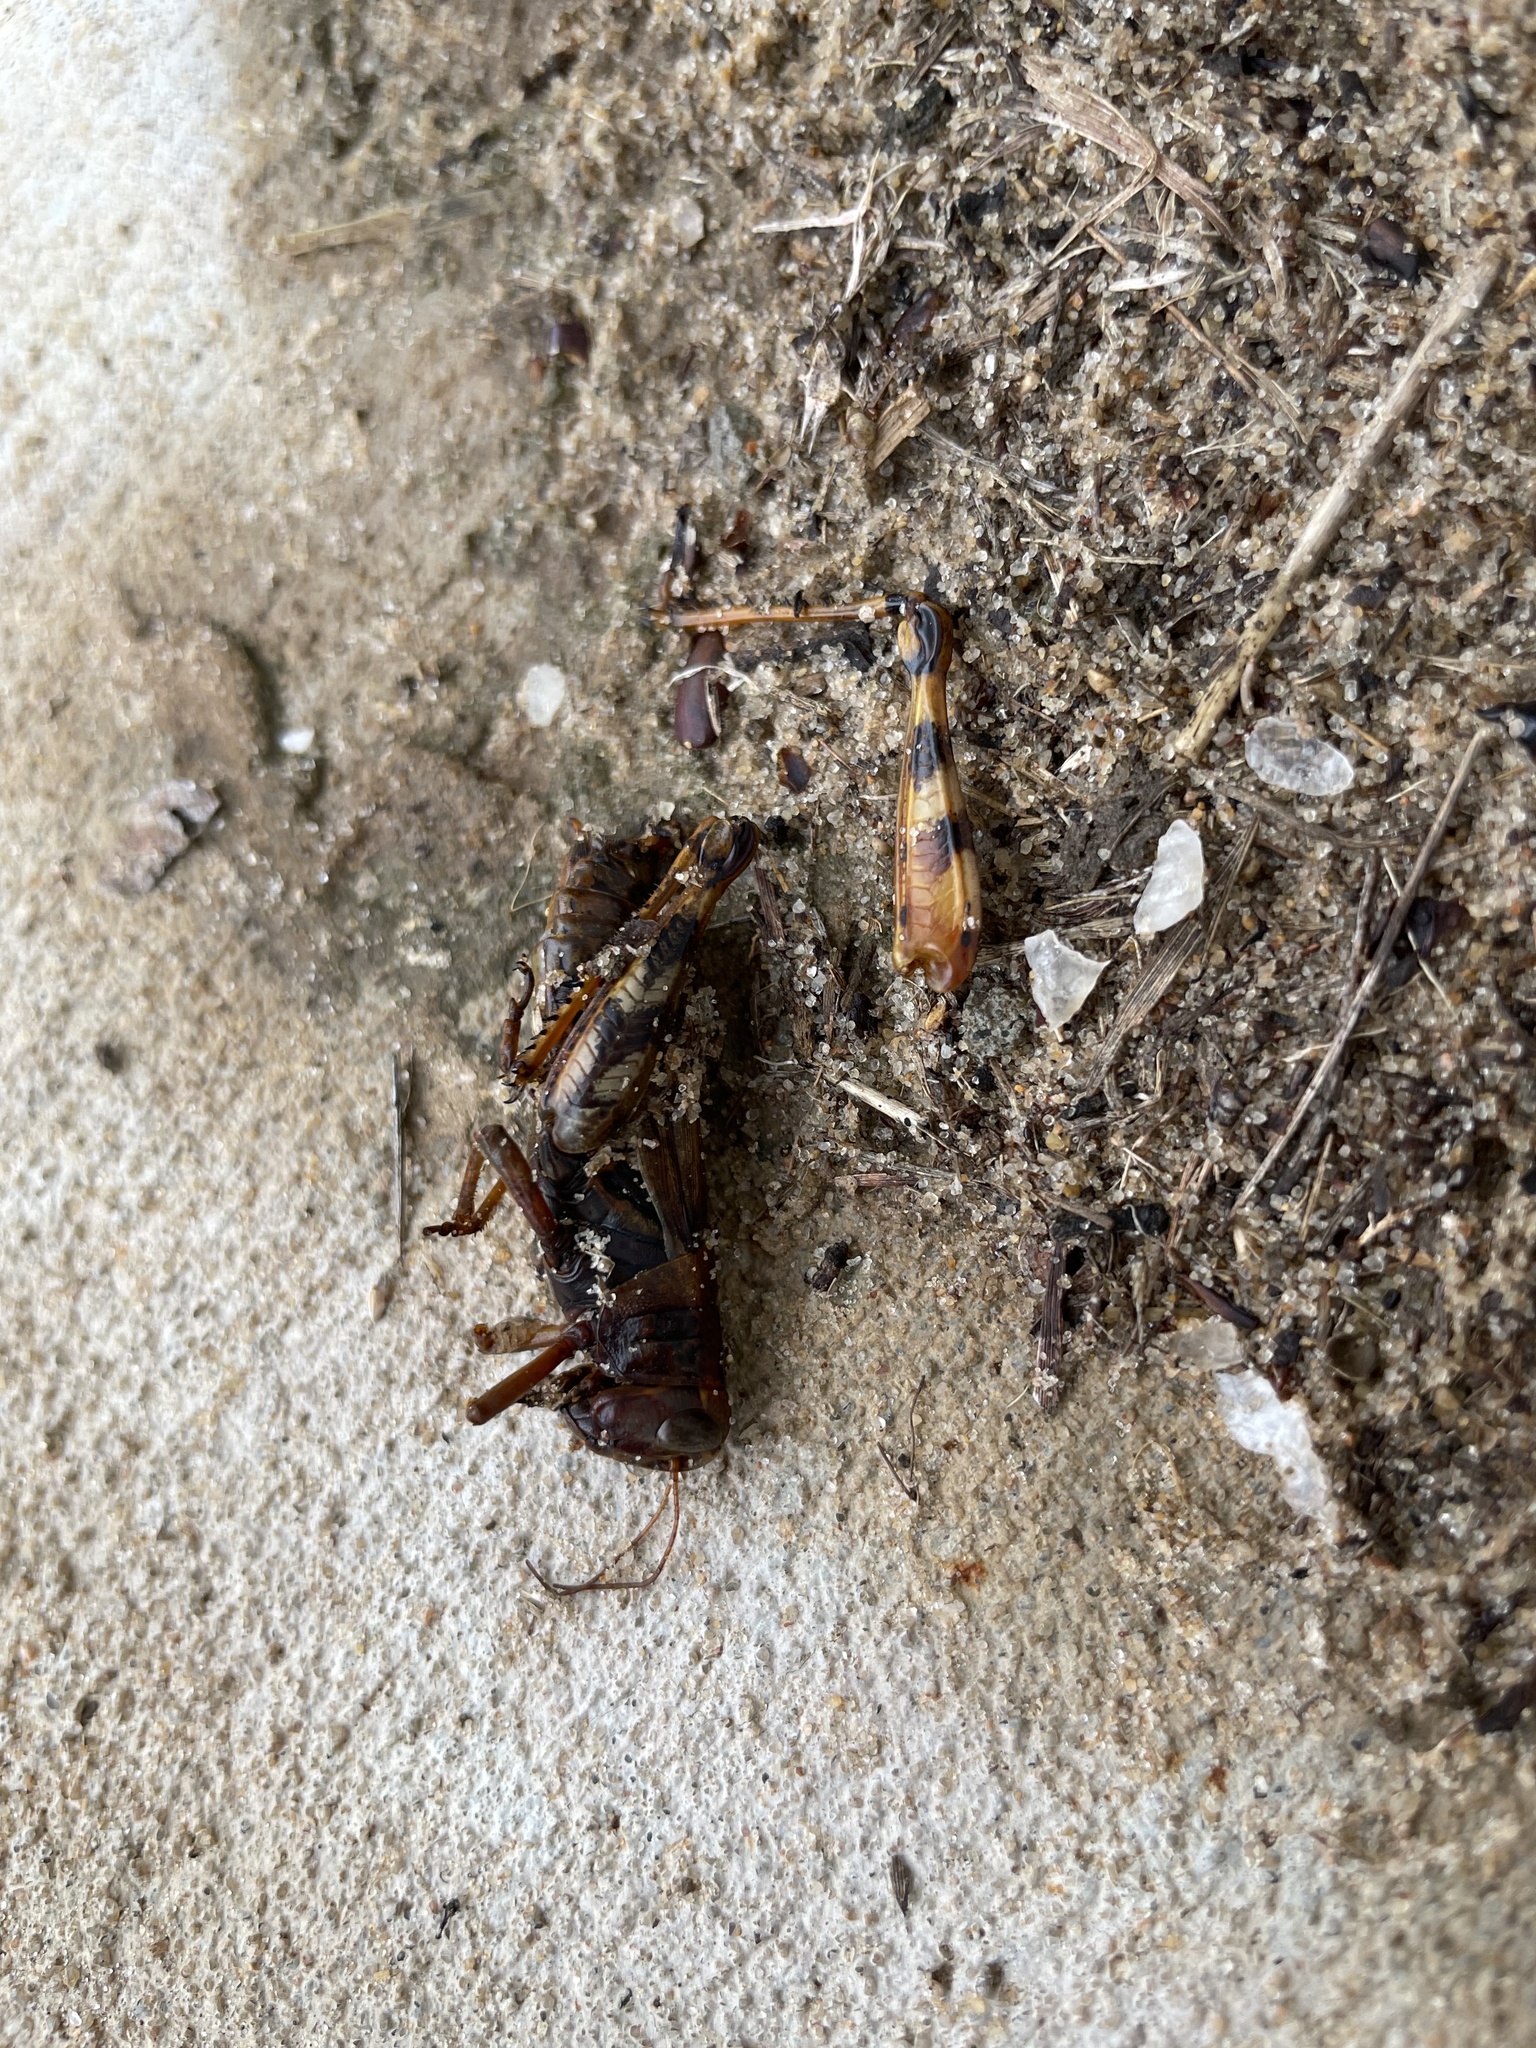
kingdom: Animalia
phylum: Arthropoda
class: Insecta
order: Orthoptera
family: Acrididae
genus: Melanoplus
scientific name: Melanoplus ponderosus
